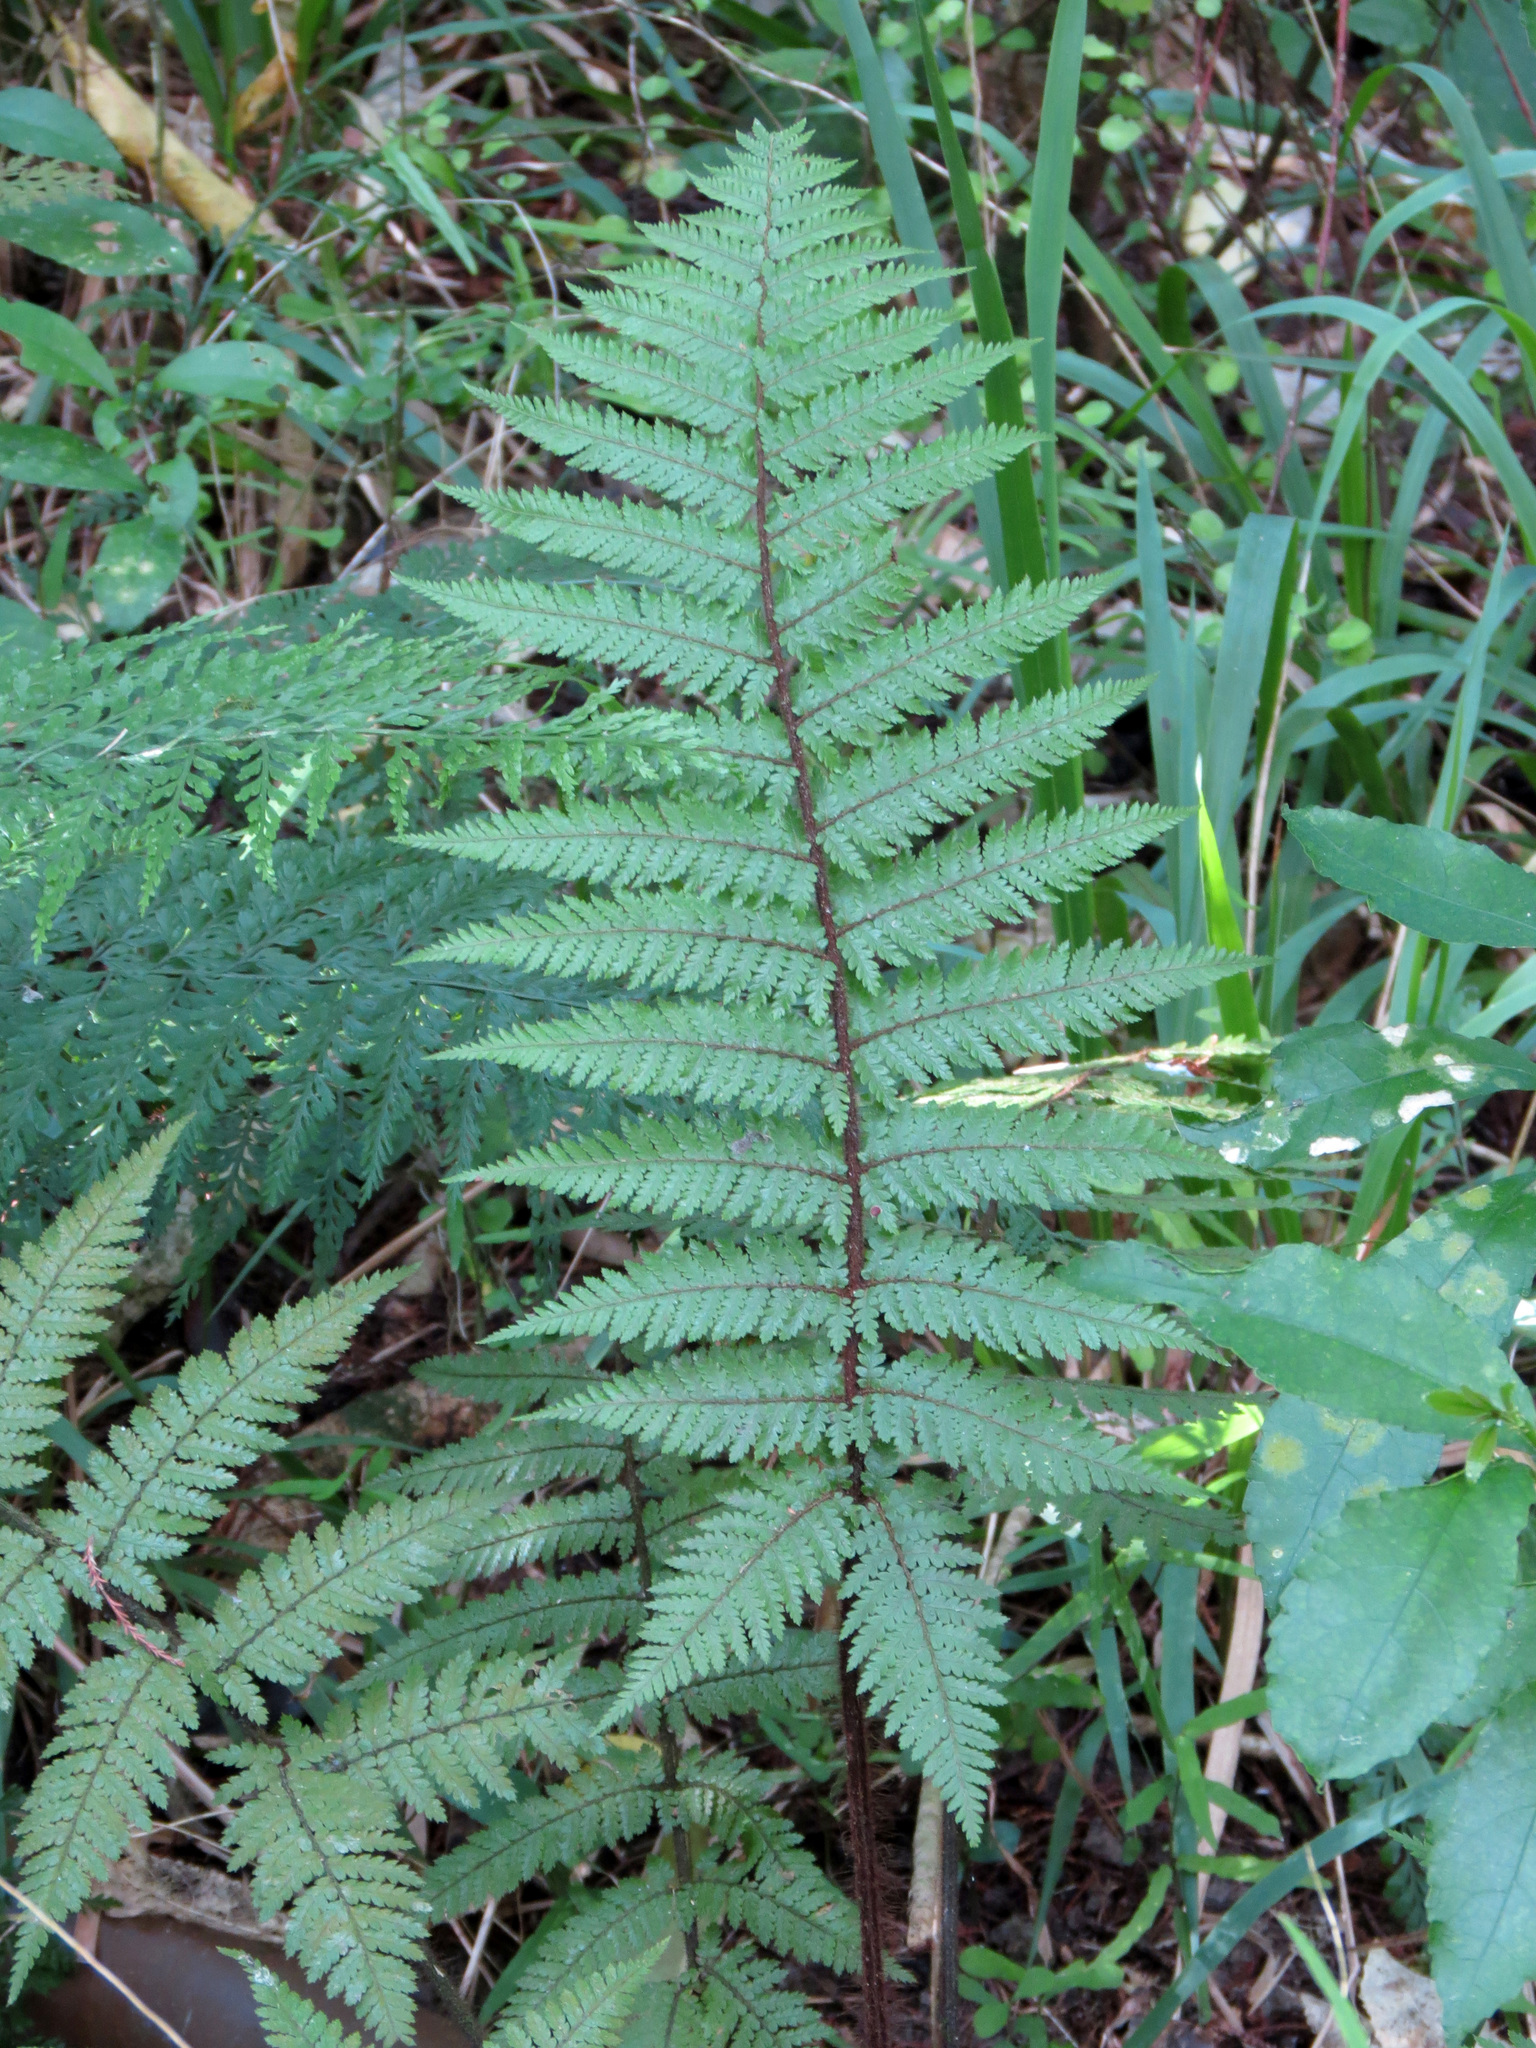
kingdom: Plantae
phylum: Tracheophyta
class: Polypodiopsida
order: Cyatheales
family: Dicksoniaceae
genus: Dicksonia
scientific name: Dicksonia squarrosa
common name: Hard treefern
